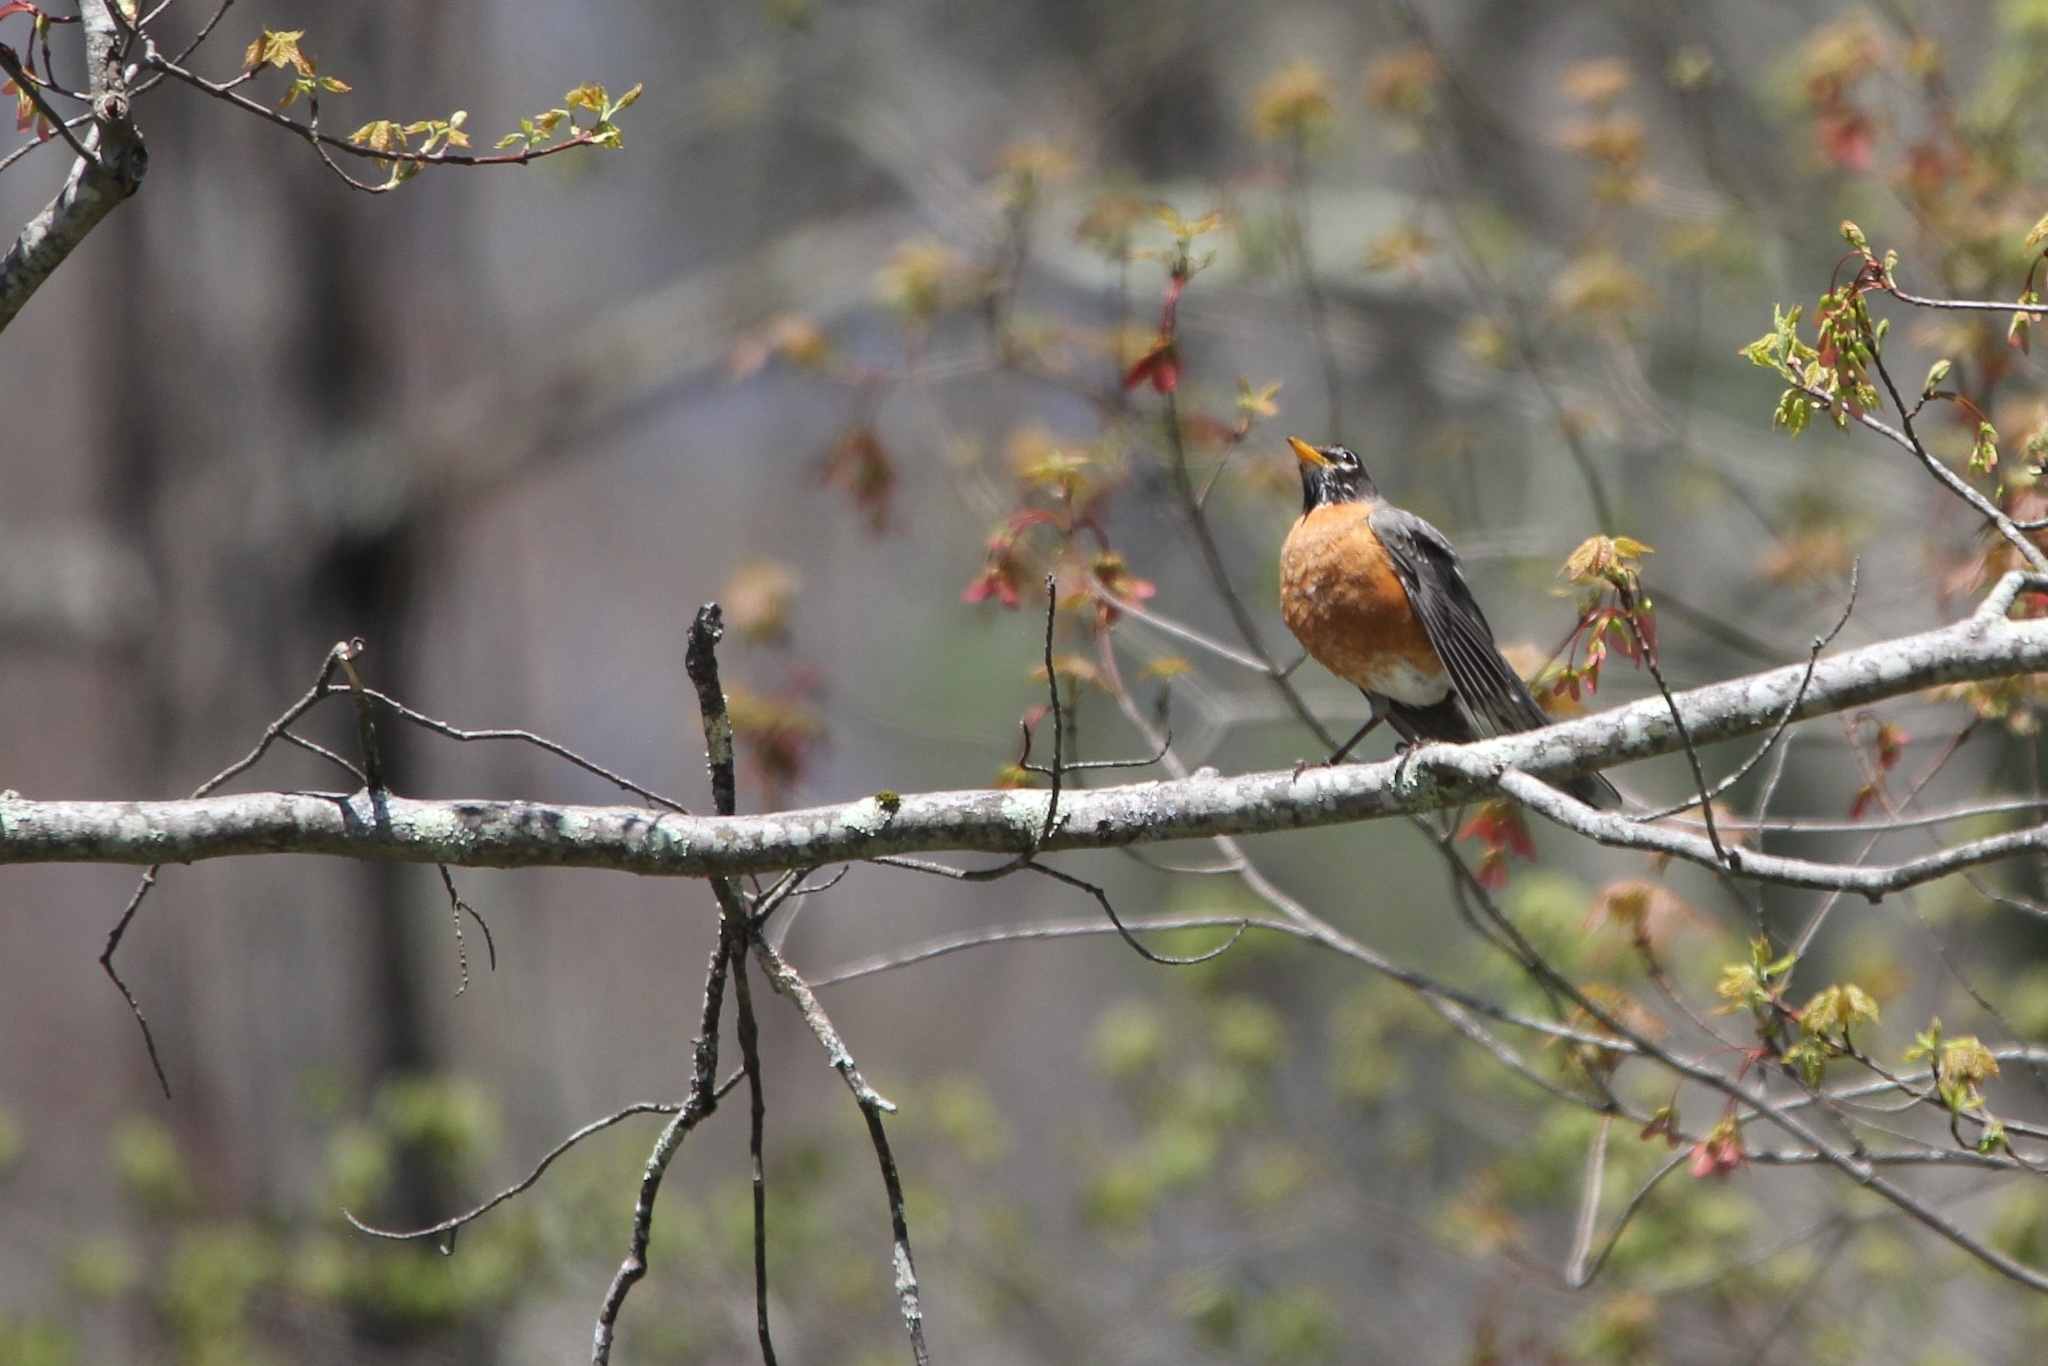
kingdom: Animalia
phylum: Chordata
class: Aves
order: Passeriformes
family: Turdidae
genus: Turdus
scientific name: Turdus migratorius
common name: American robin
